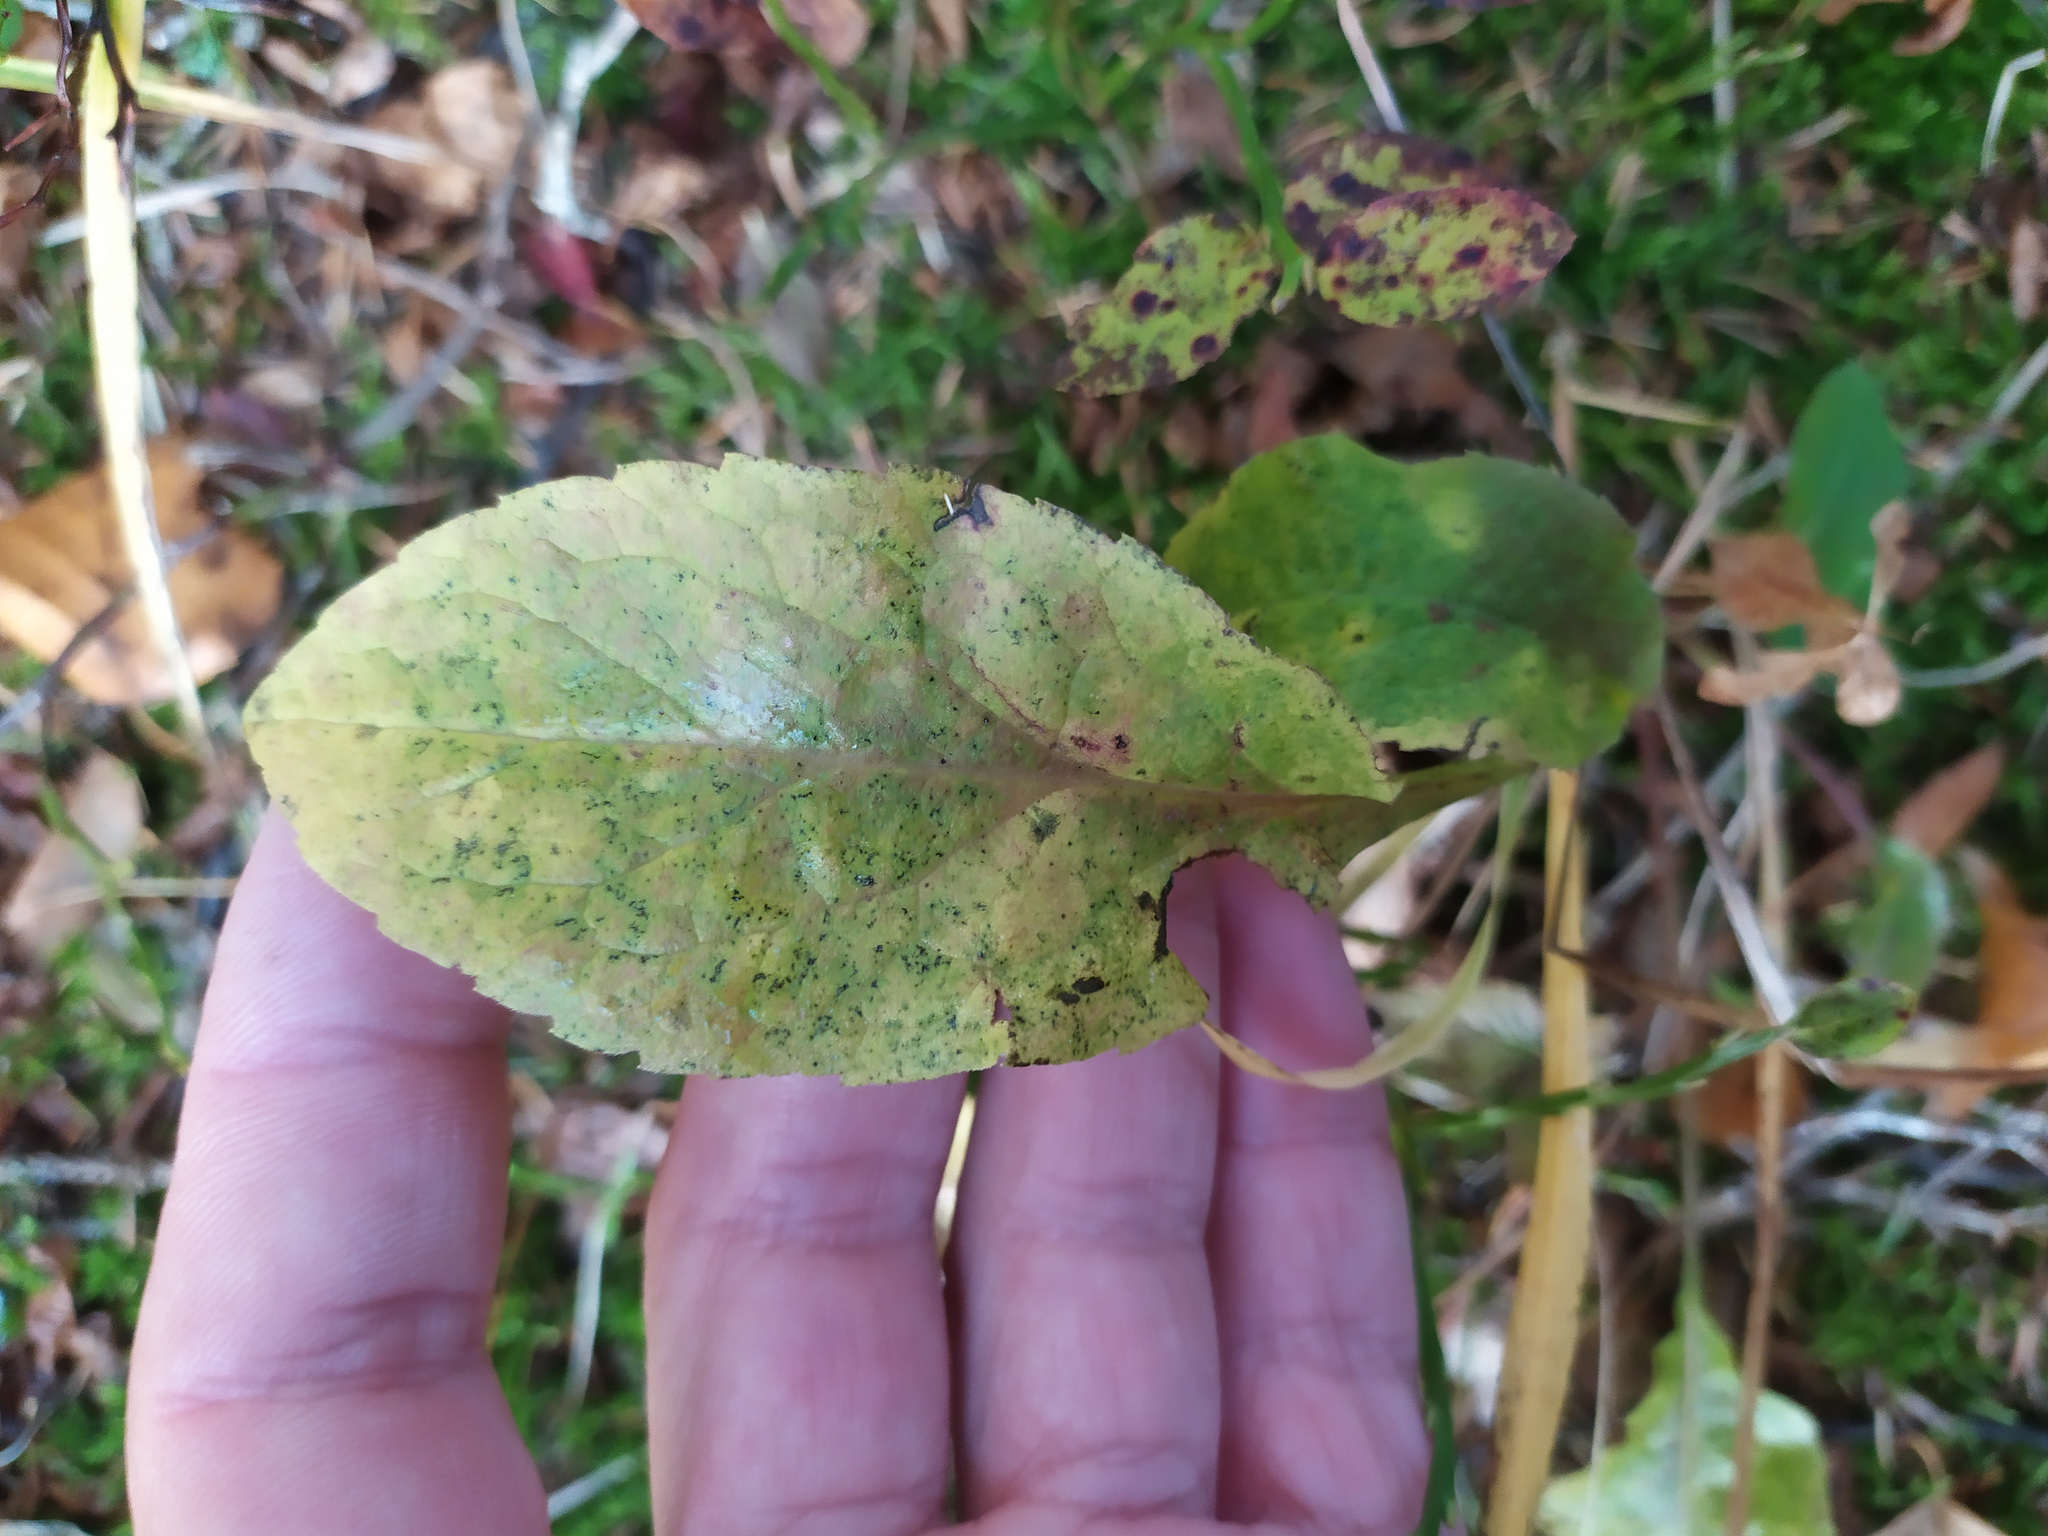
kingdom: Plantae
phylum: Tracheophyta
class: Magnoliopsida
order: Asterales
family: Asteraceae
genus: Solidago
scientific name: Solidago virgaurea
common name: Goldenrod
